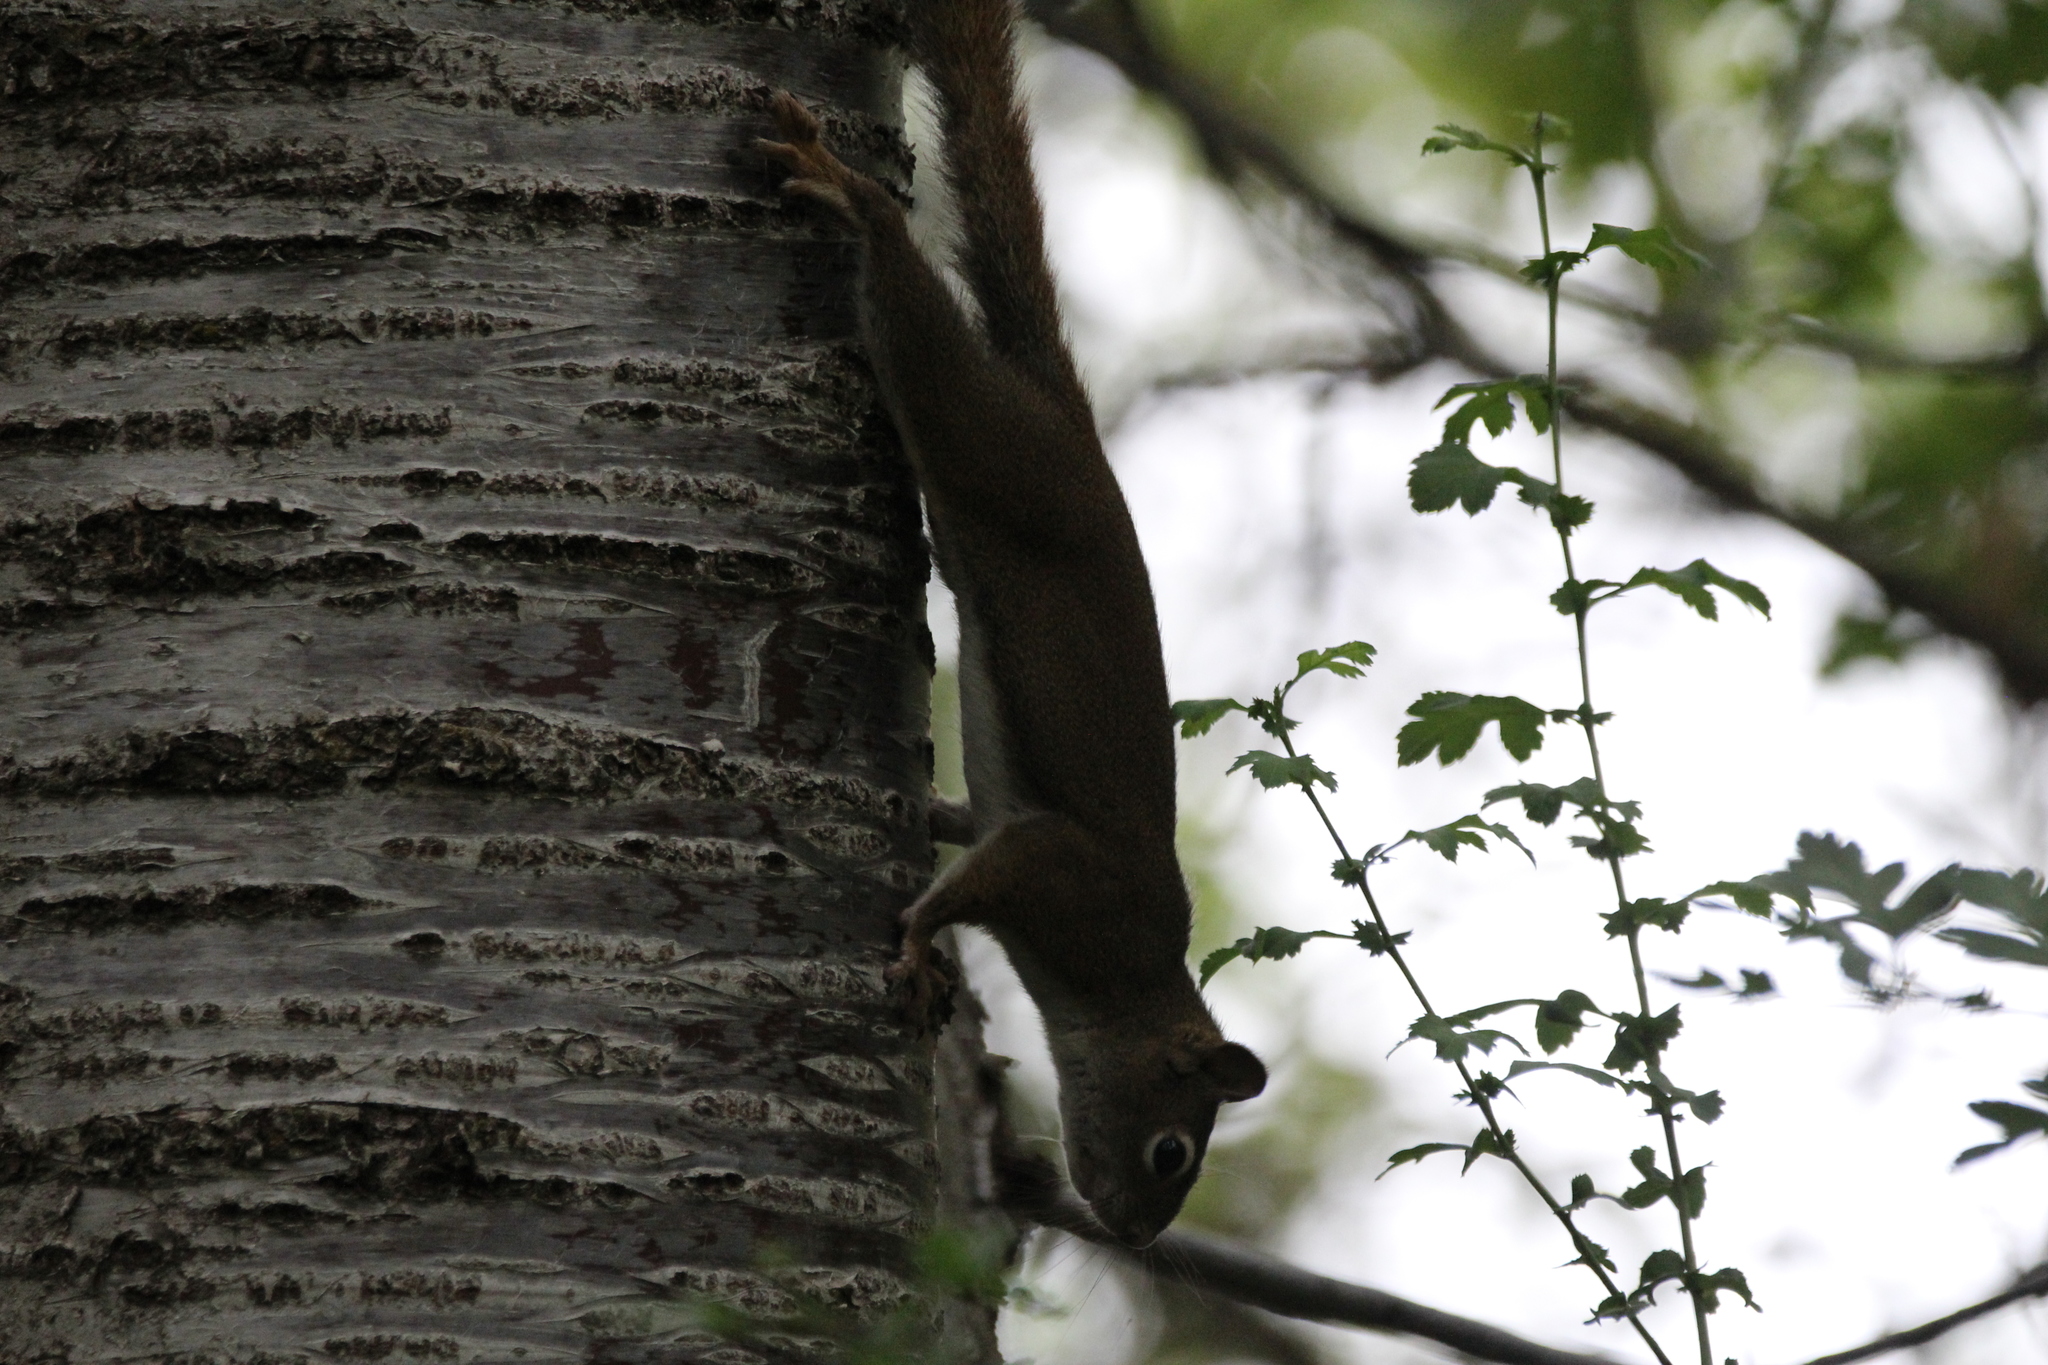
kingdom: Animalia
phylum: Chordata
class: Mammalia
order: Rodentia
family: Sciuridae
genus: Tamiasciurus
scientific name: Tamiasciurus hudsonicus
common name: Red squirrel
